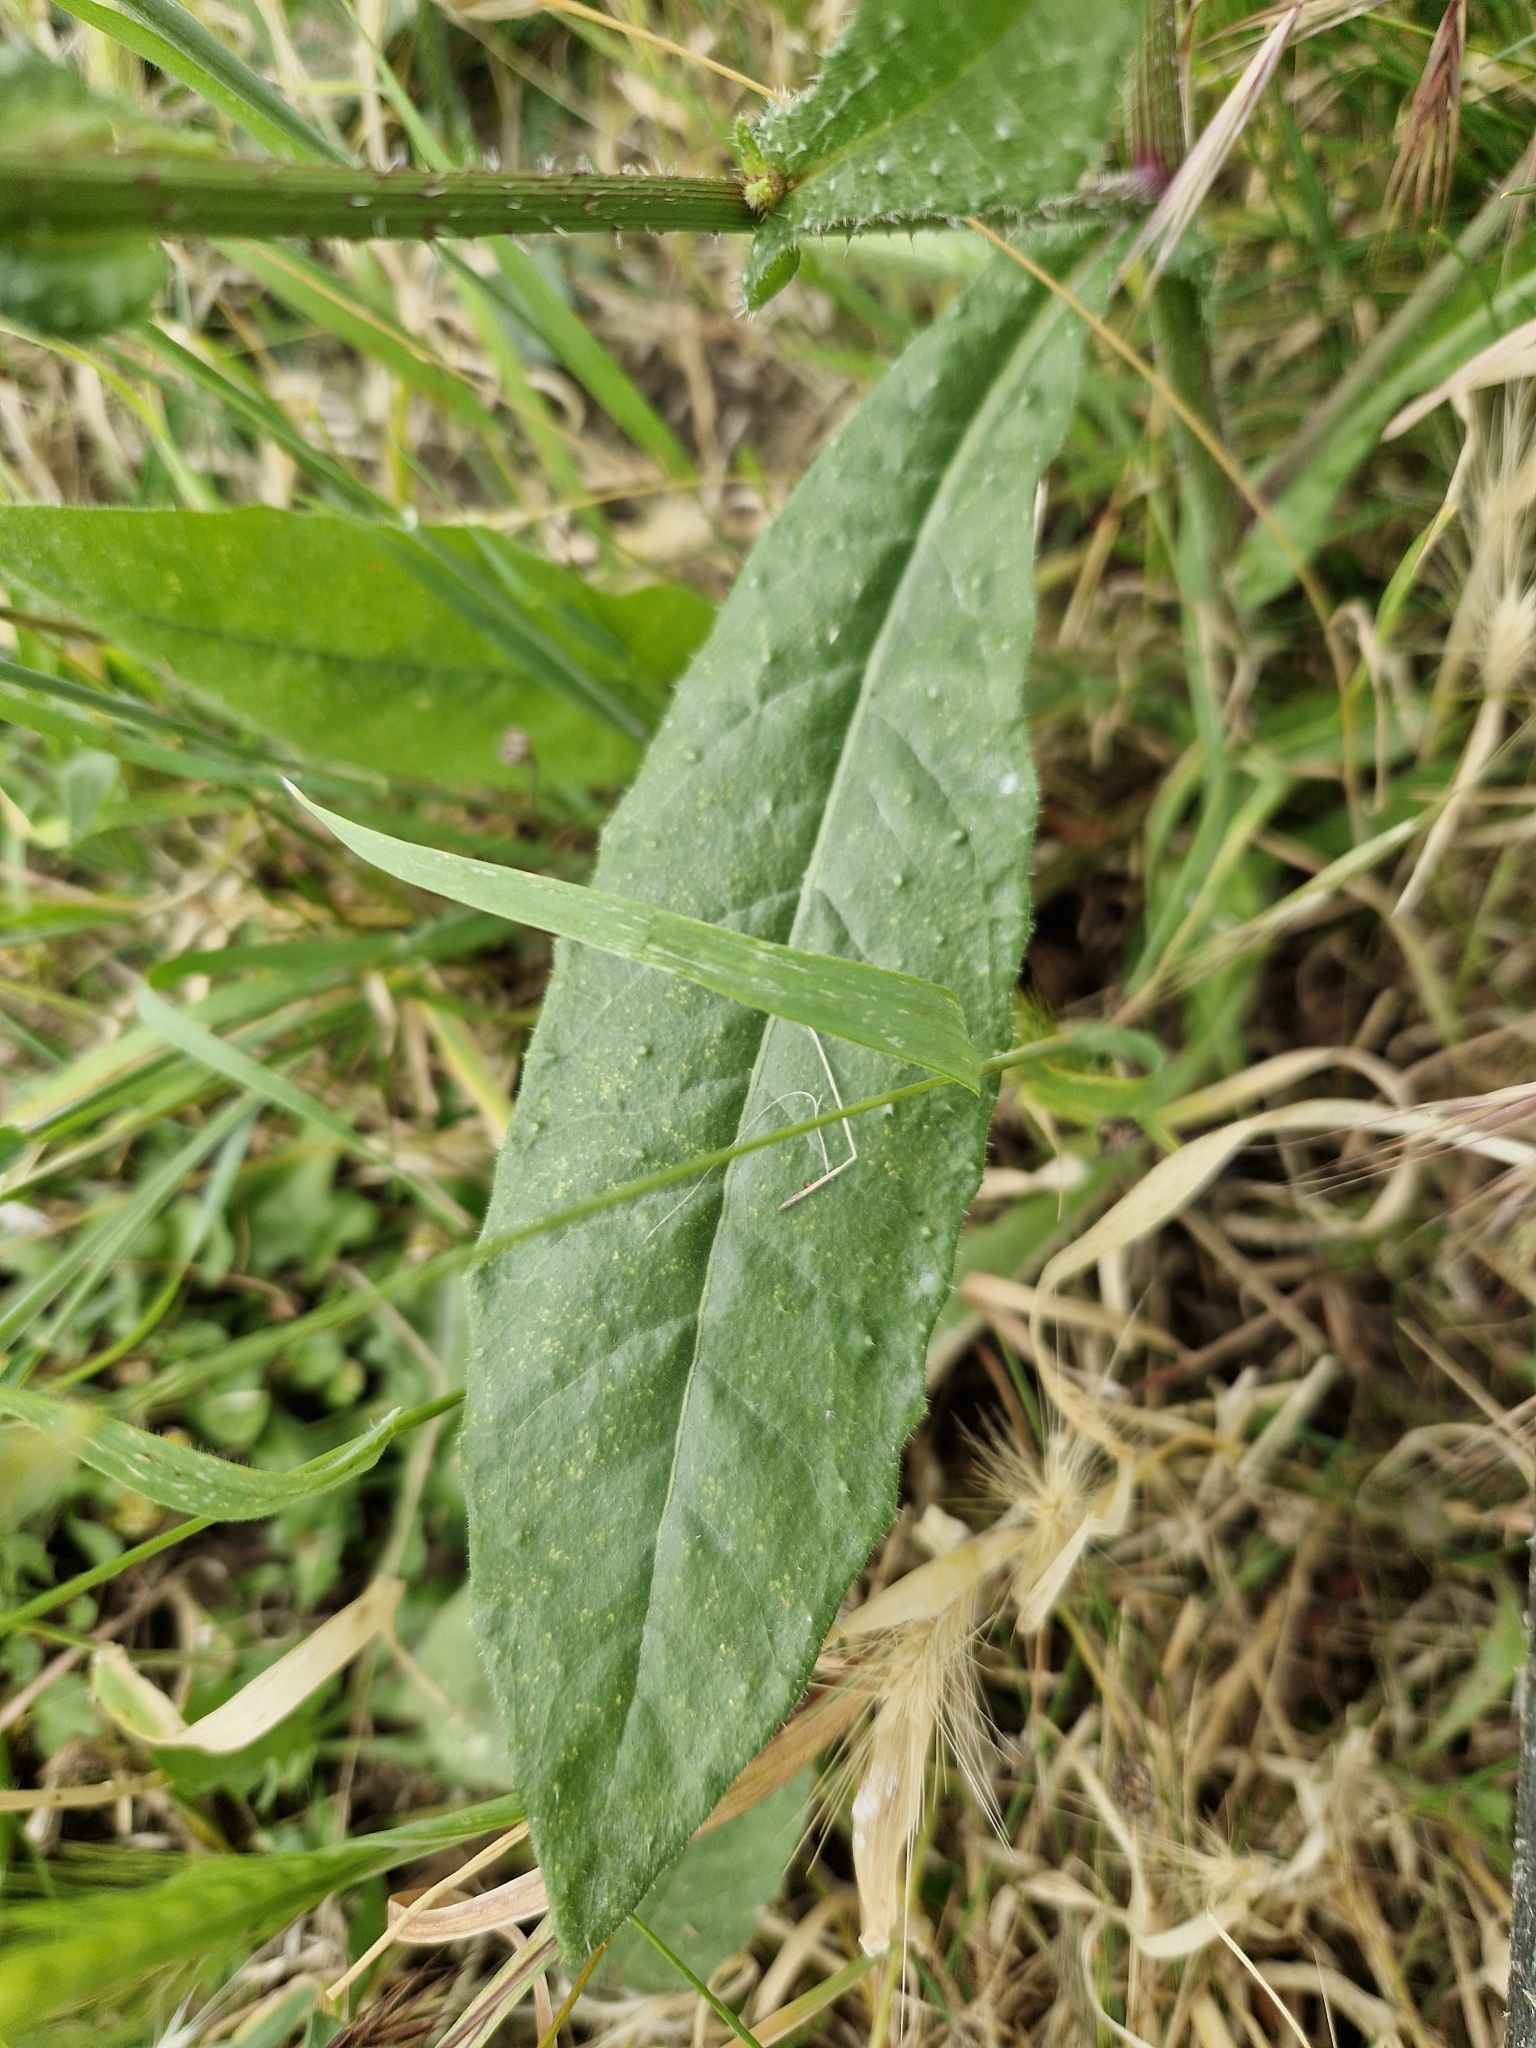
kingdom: Plantae
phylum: Tracheophyta
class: Magnoliopsida
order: Asterales
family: Asteraceae
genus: Helminthotheca
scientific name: Helminthotheca echioides
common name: Ox-tongue
